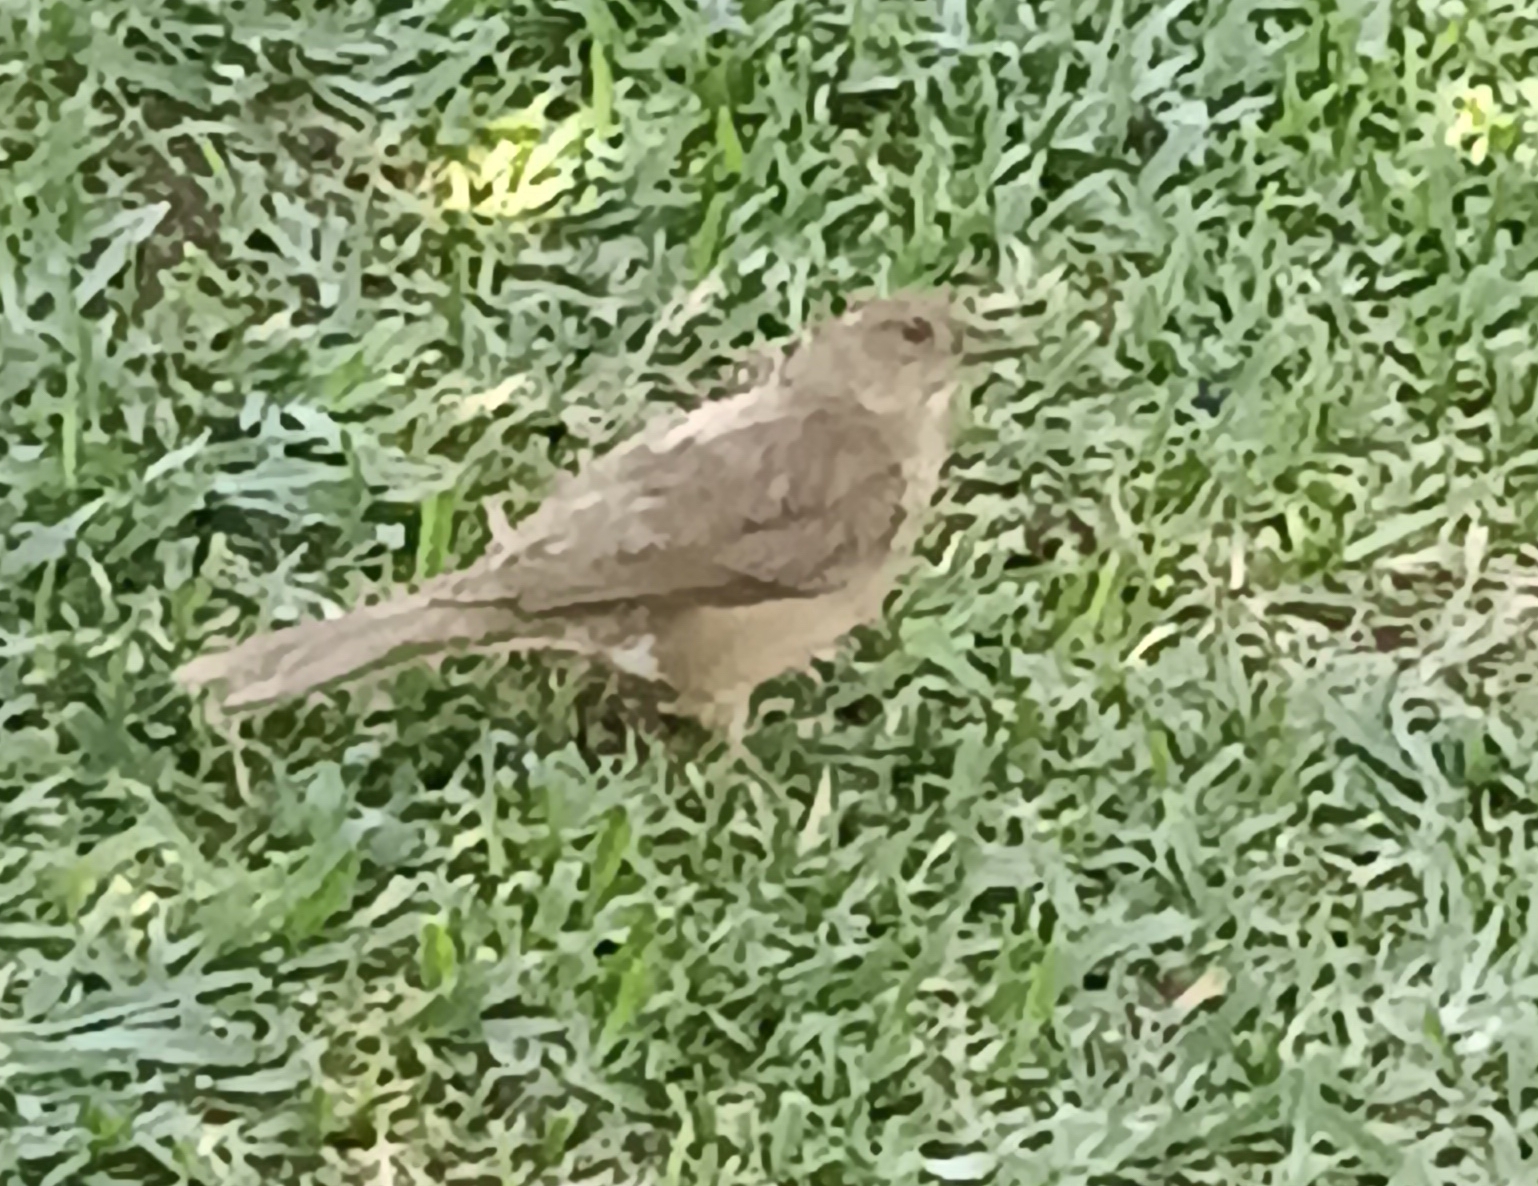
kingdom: Animalia
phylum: Chordata
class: Aves
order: Passeriformes
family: Turdidae
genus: Turdus
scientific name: Turdus grayi
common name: Clay-colored thrush
